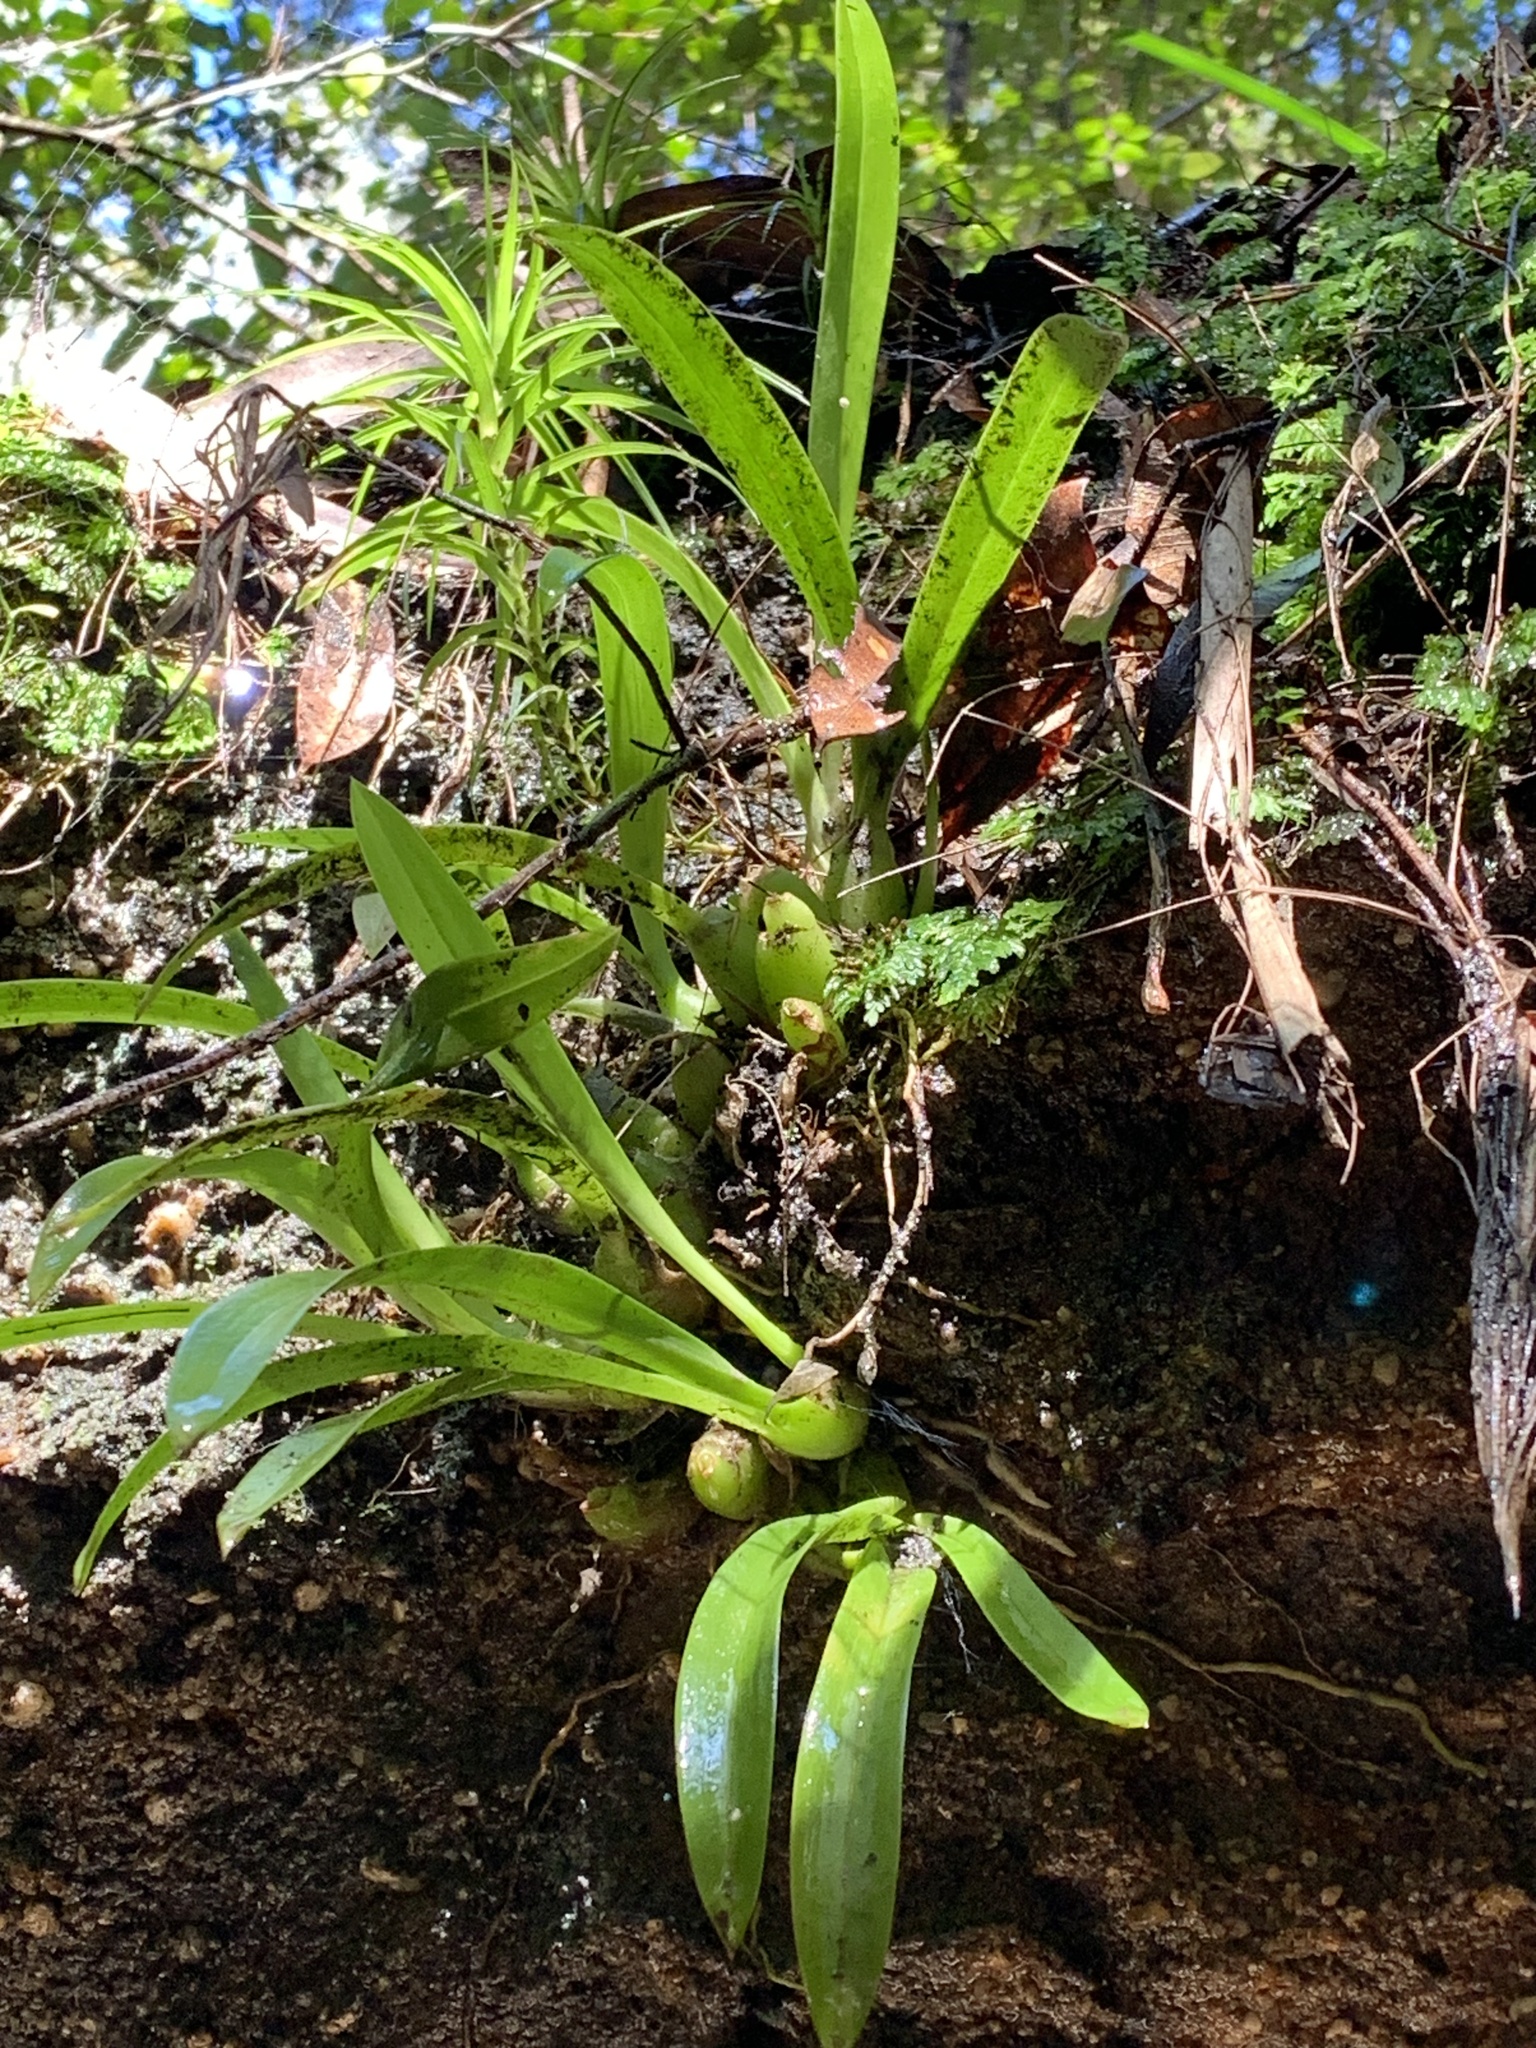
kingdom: Plantae
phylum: Tracheophyta
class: Liliopsida
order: Asparagales
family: Orchidaceae
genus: Liparis
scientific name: Liparis reflexa
